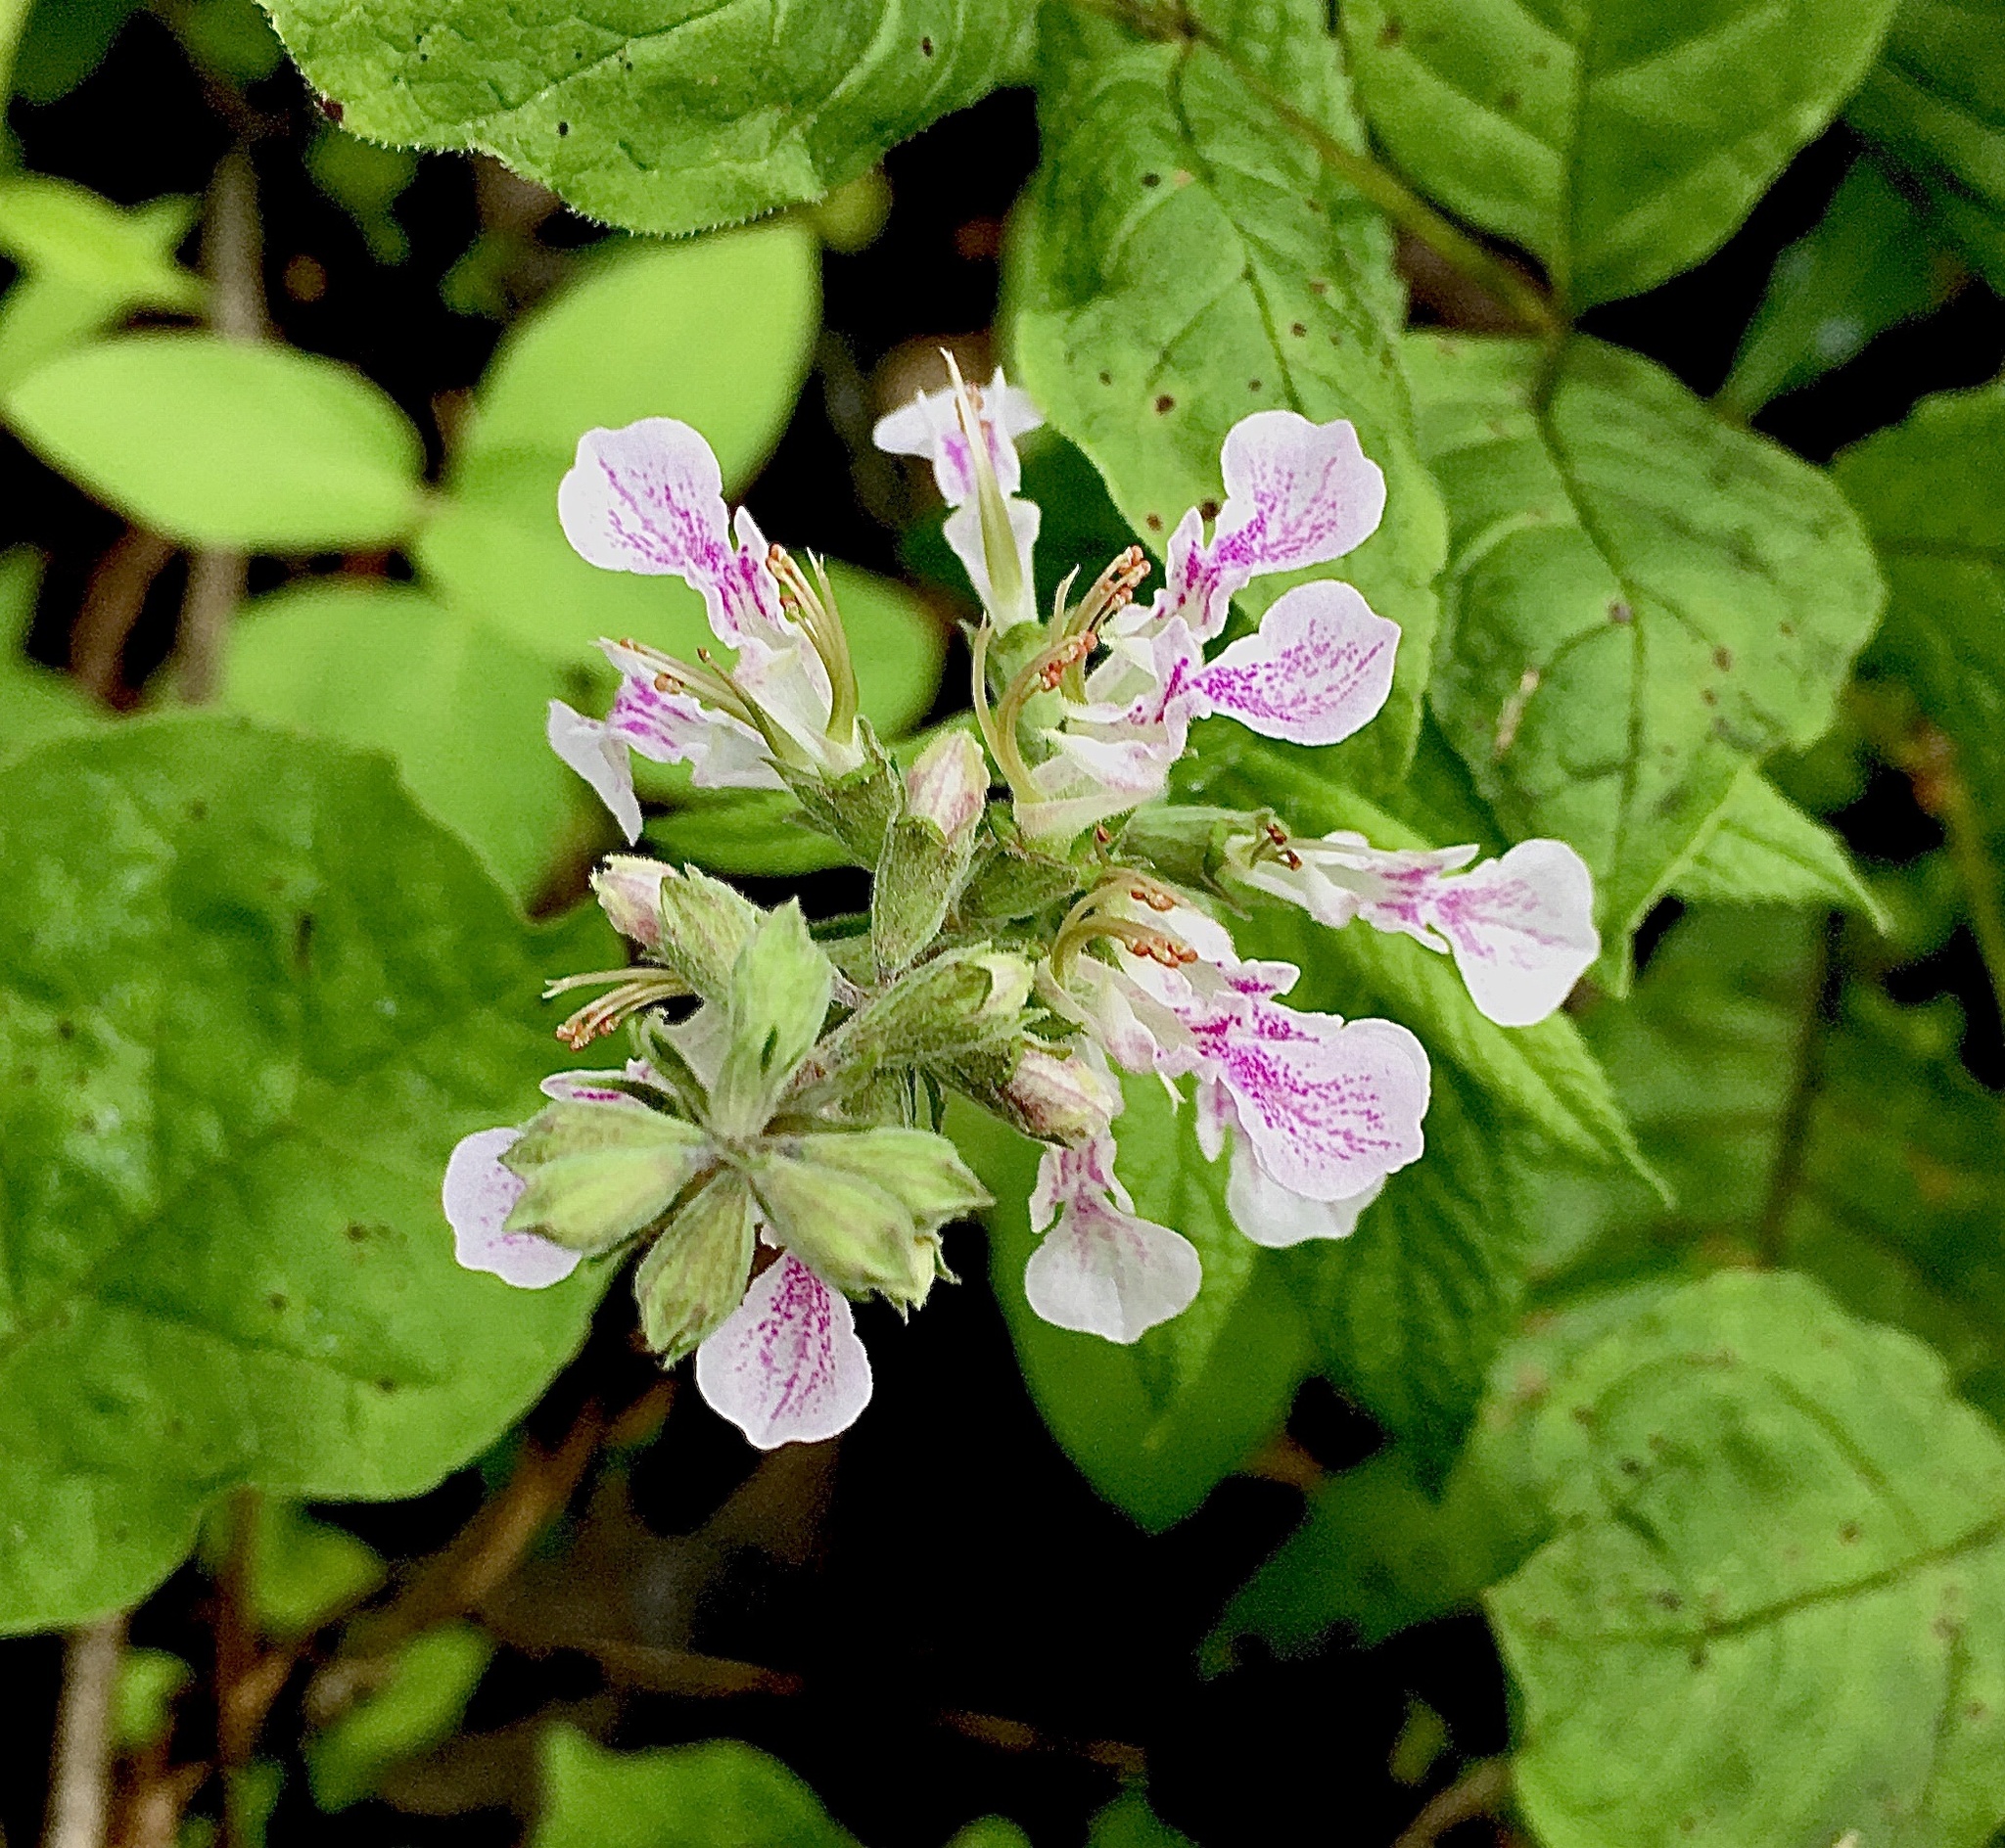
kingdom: Plantae
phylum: Tracheophyta
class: Magnoliopsida
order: Lamiales
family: Lamiaceae
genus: Teucrium
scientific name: Teucrium canadense
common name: American germander
